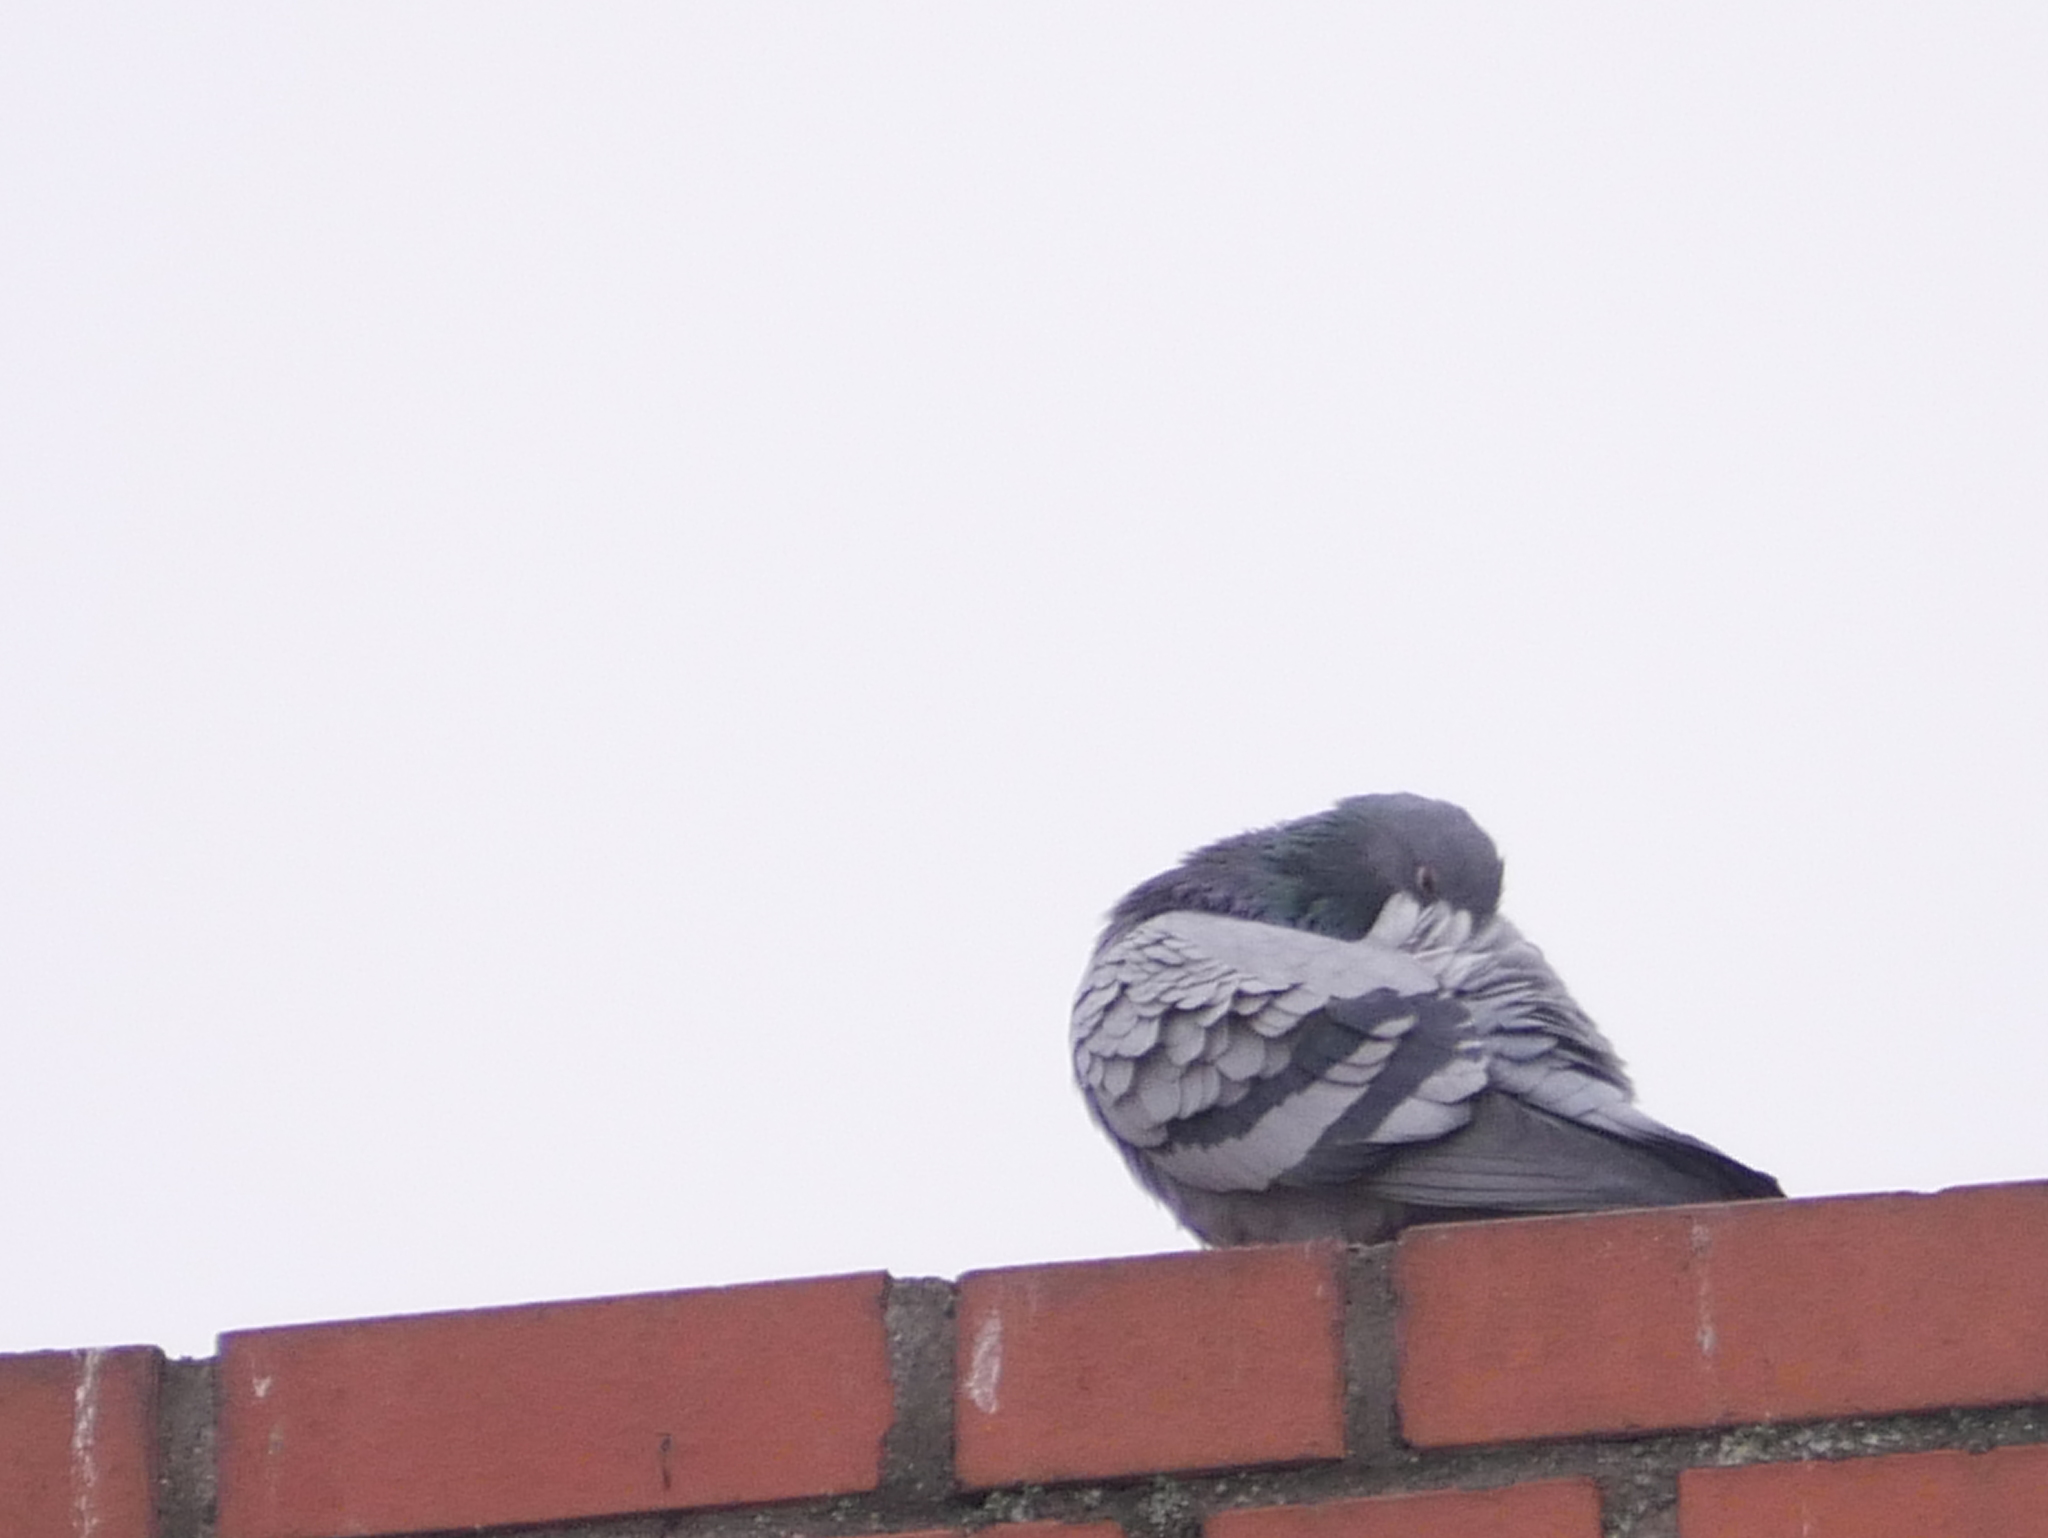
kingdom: Animalia
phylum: Chordata
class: Aves
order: Columbiformes
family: Columbidae
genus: Columba
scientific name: Columba livia
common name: Rock pigeon
